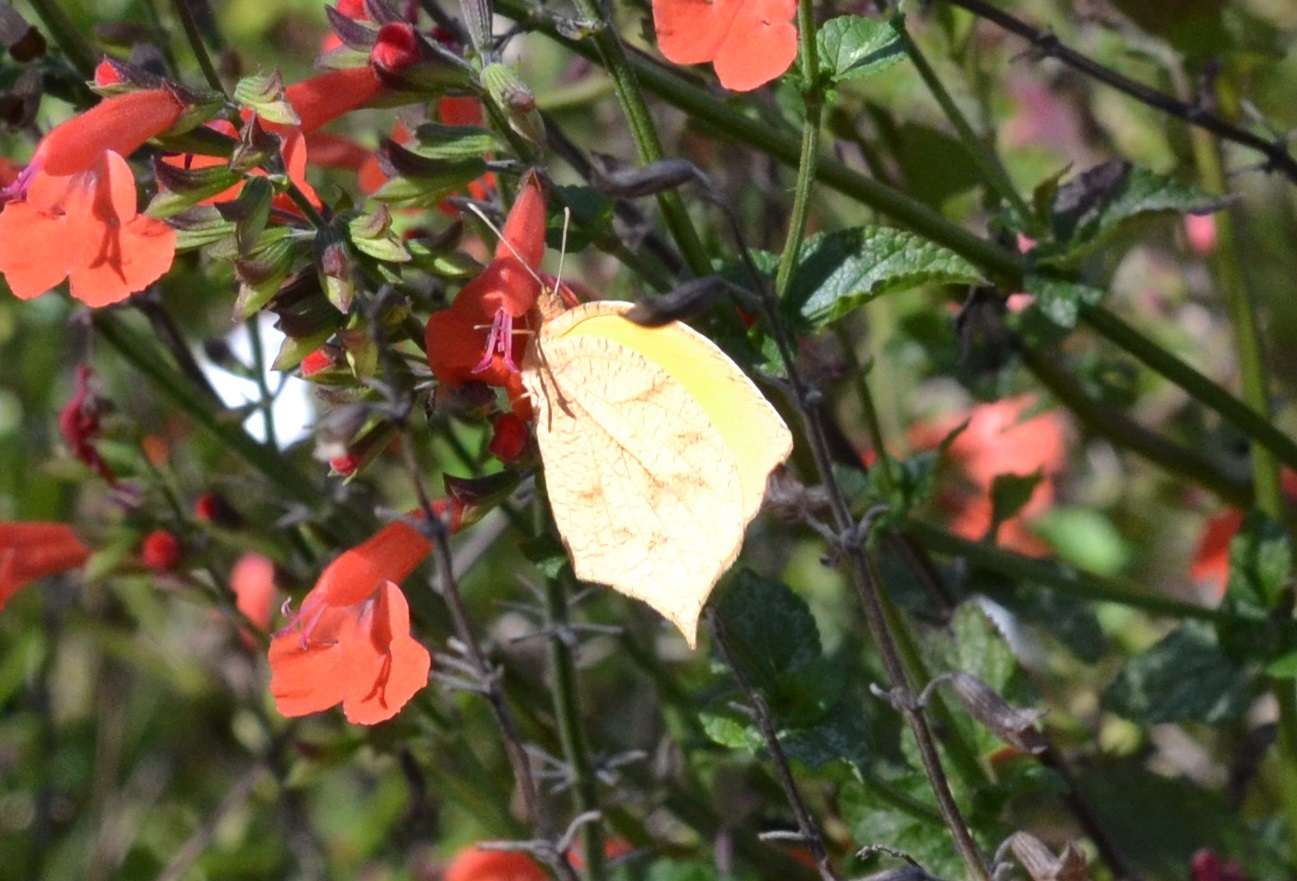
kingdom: Animalia
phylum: Arthropoda
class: Insecta
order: Lepidoptera
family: Pieridae
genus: Pyrisitia
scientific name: Pyrisitia proterpia
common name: Tailed orange
